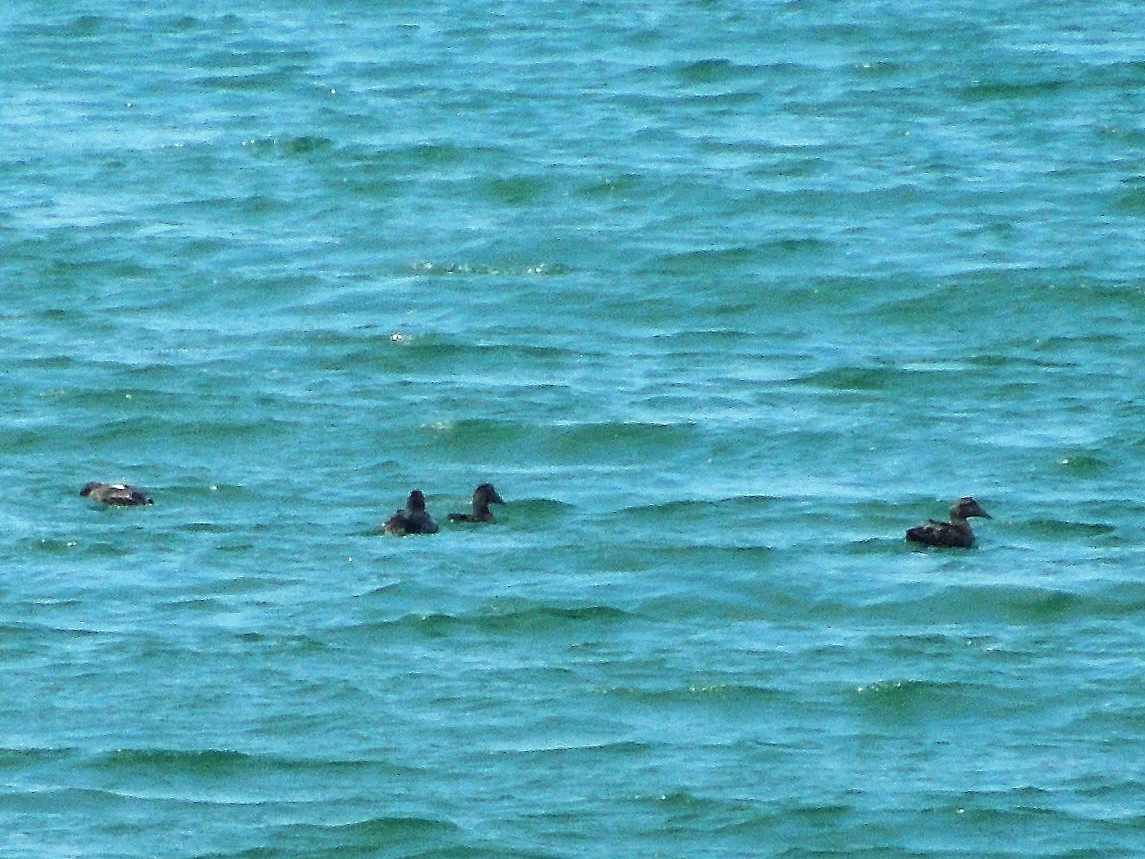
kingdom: Animalia
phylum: Chordata
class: Aves
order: Anseriformes
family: Anatidae
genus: Somateria
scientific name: Somateria mollissima
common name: Common eider
